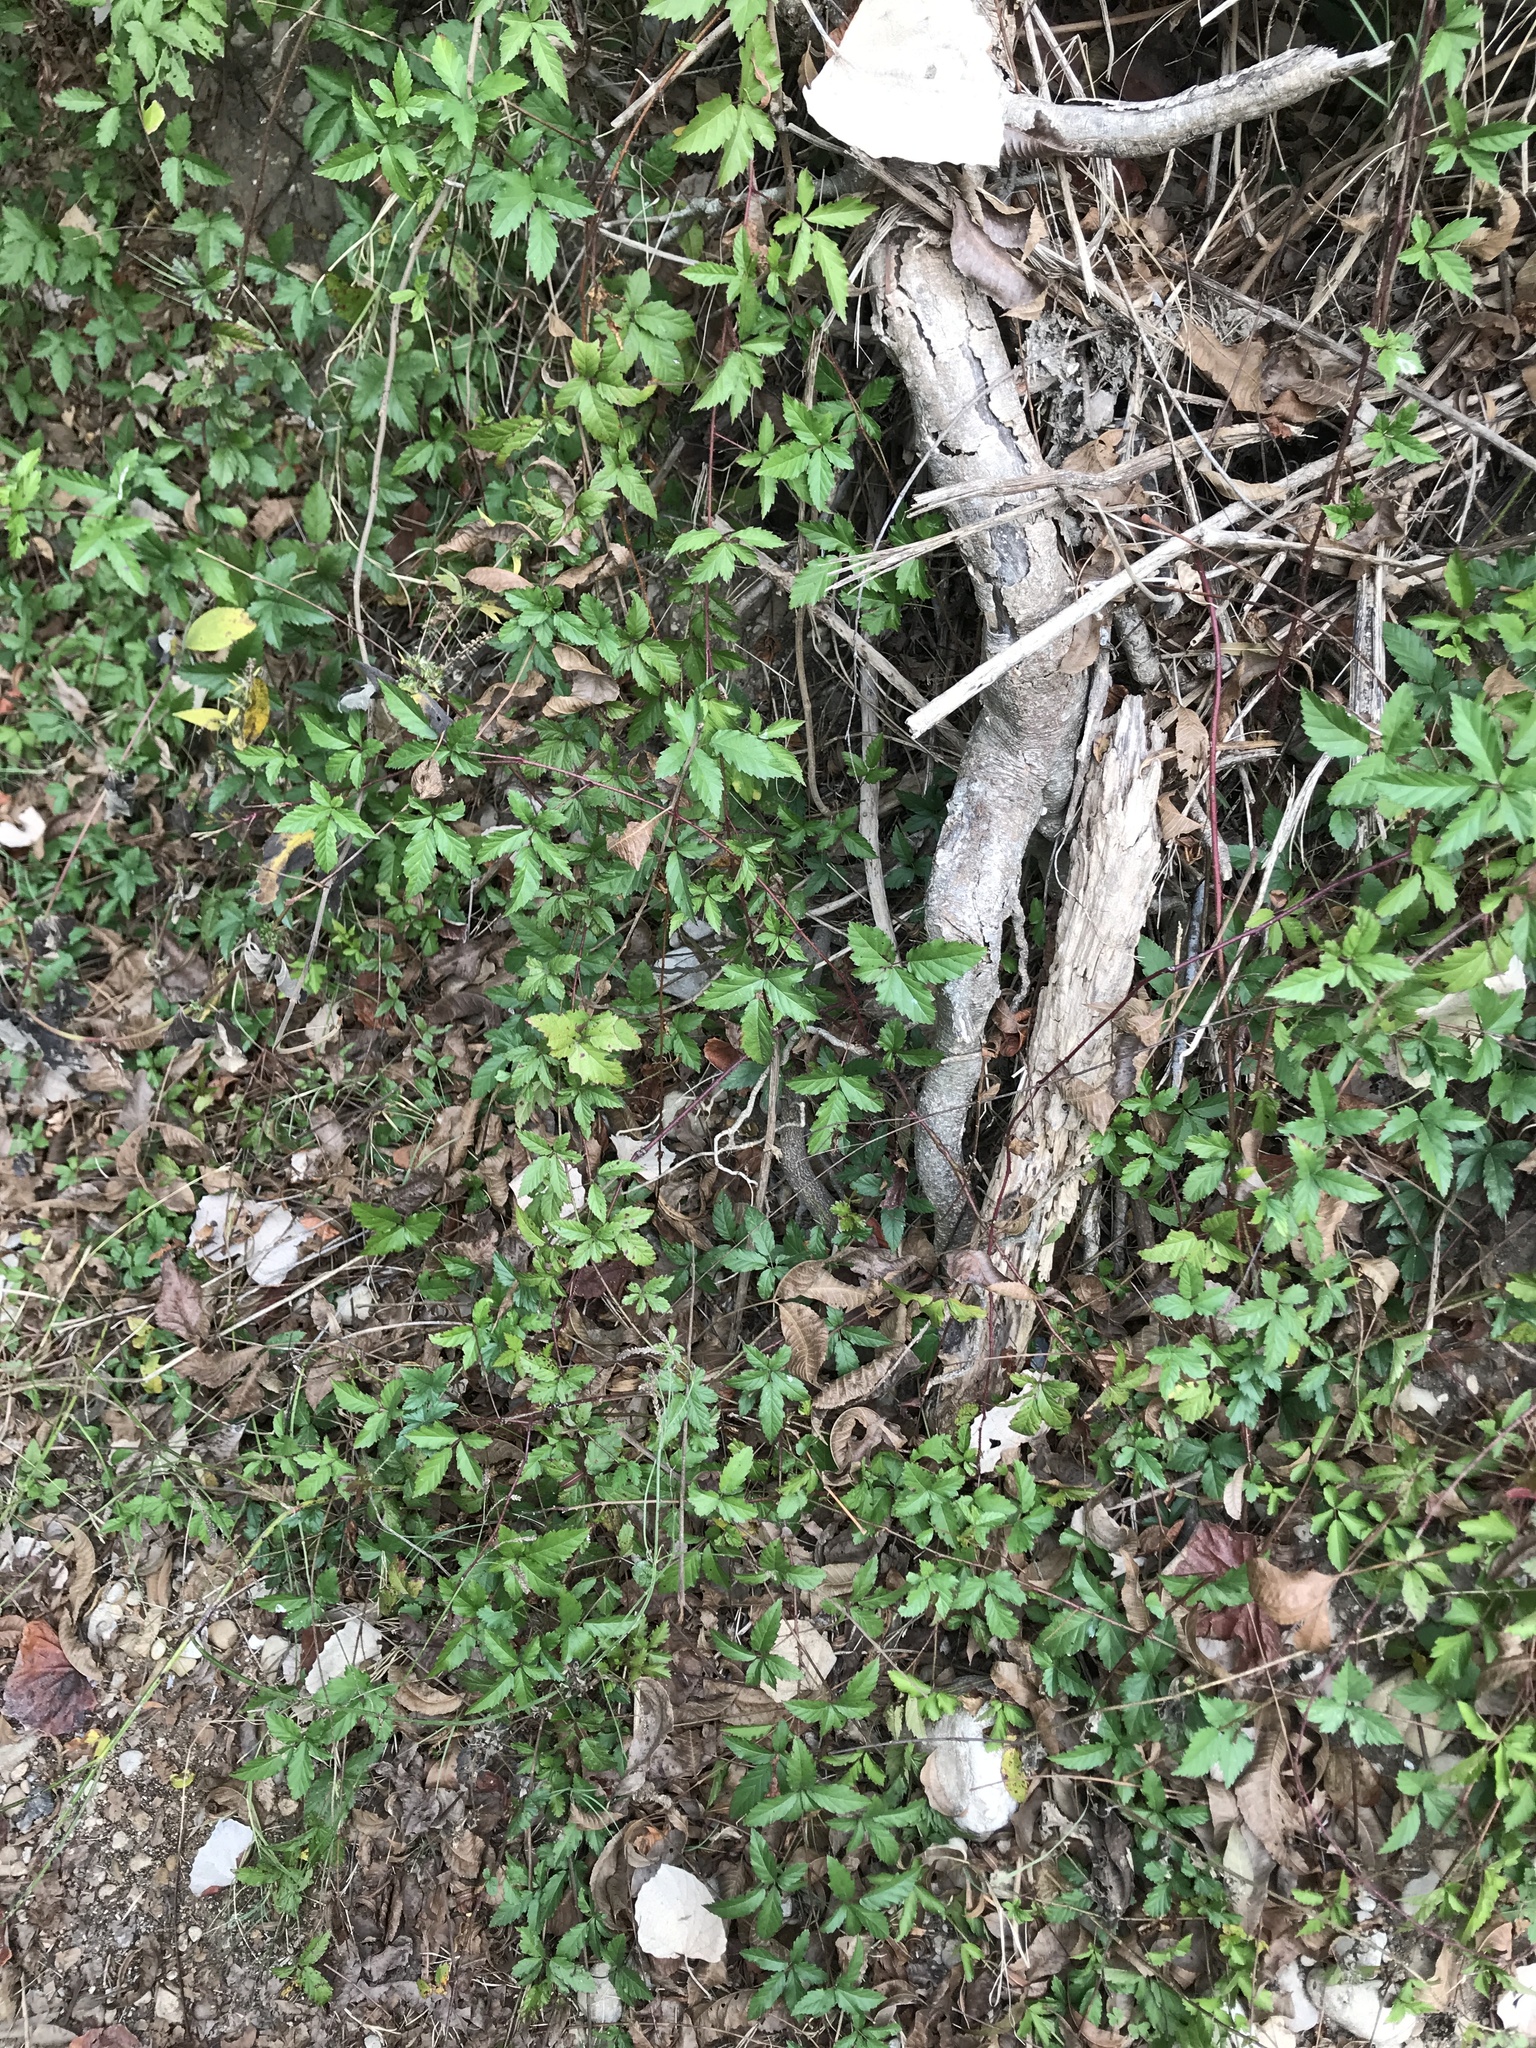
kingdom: Plantae
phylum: Tracheophyta
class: Magnoliopsida
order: Rosales
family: Rosaceae
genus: Rubus
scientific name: Rubus trivialis
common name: Southern dewberry
